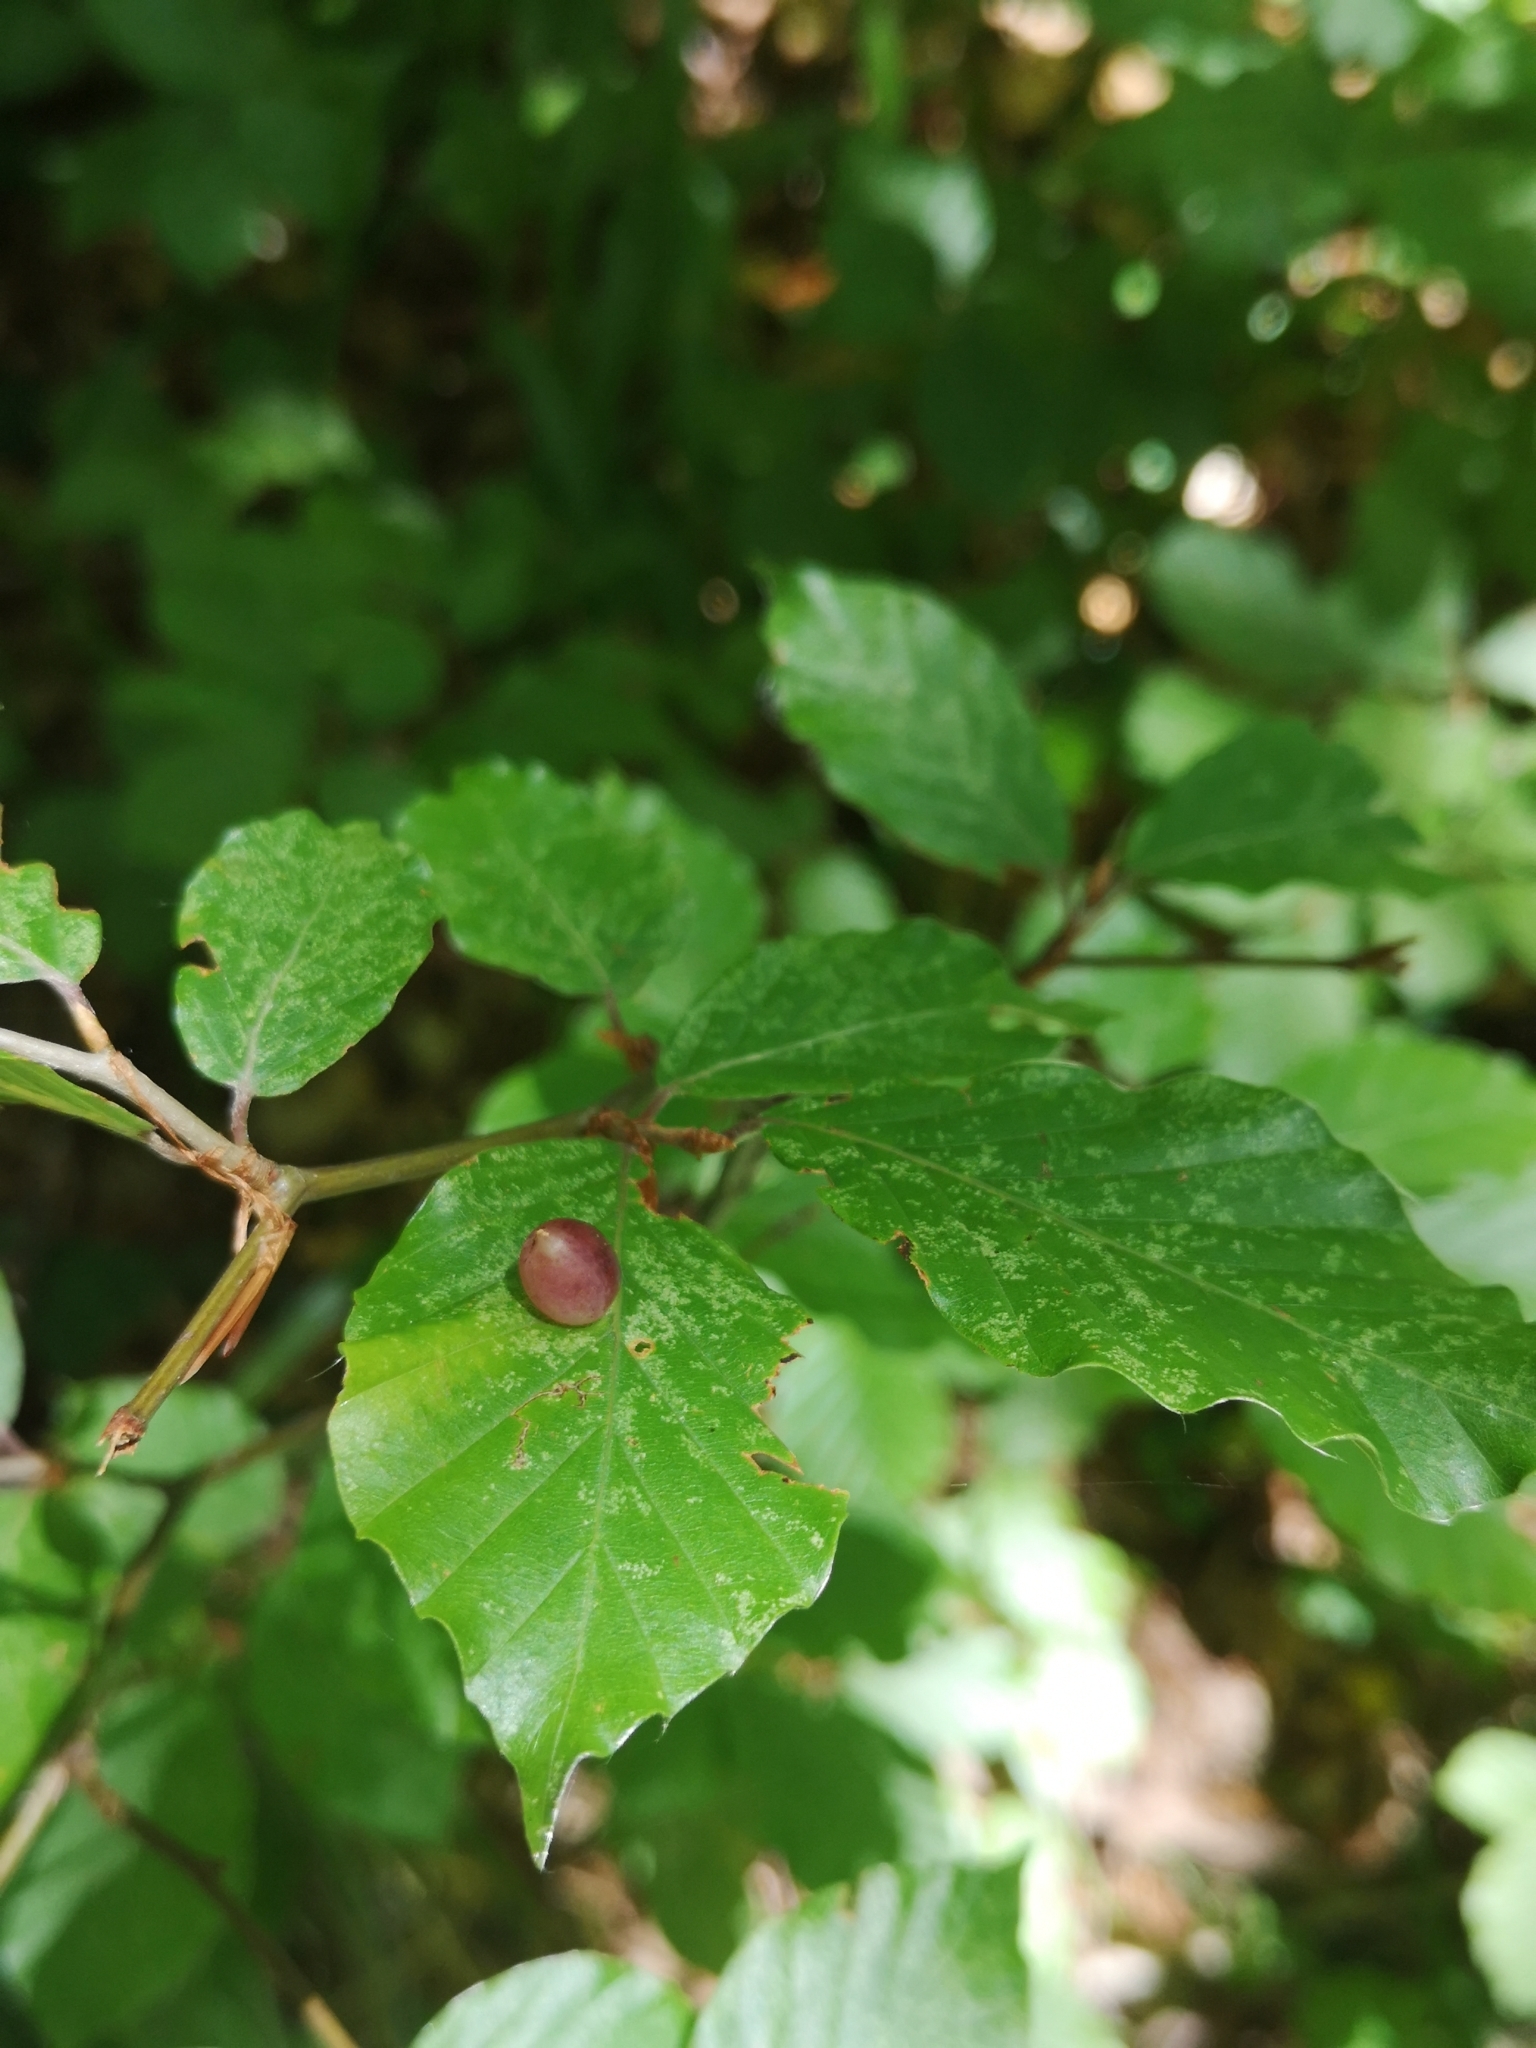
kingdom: Animalia
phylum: Arthropoda
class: Insecta
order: Diptera
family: Cecidomyiidae
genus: Mikiola
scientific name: Mikiola fagi
